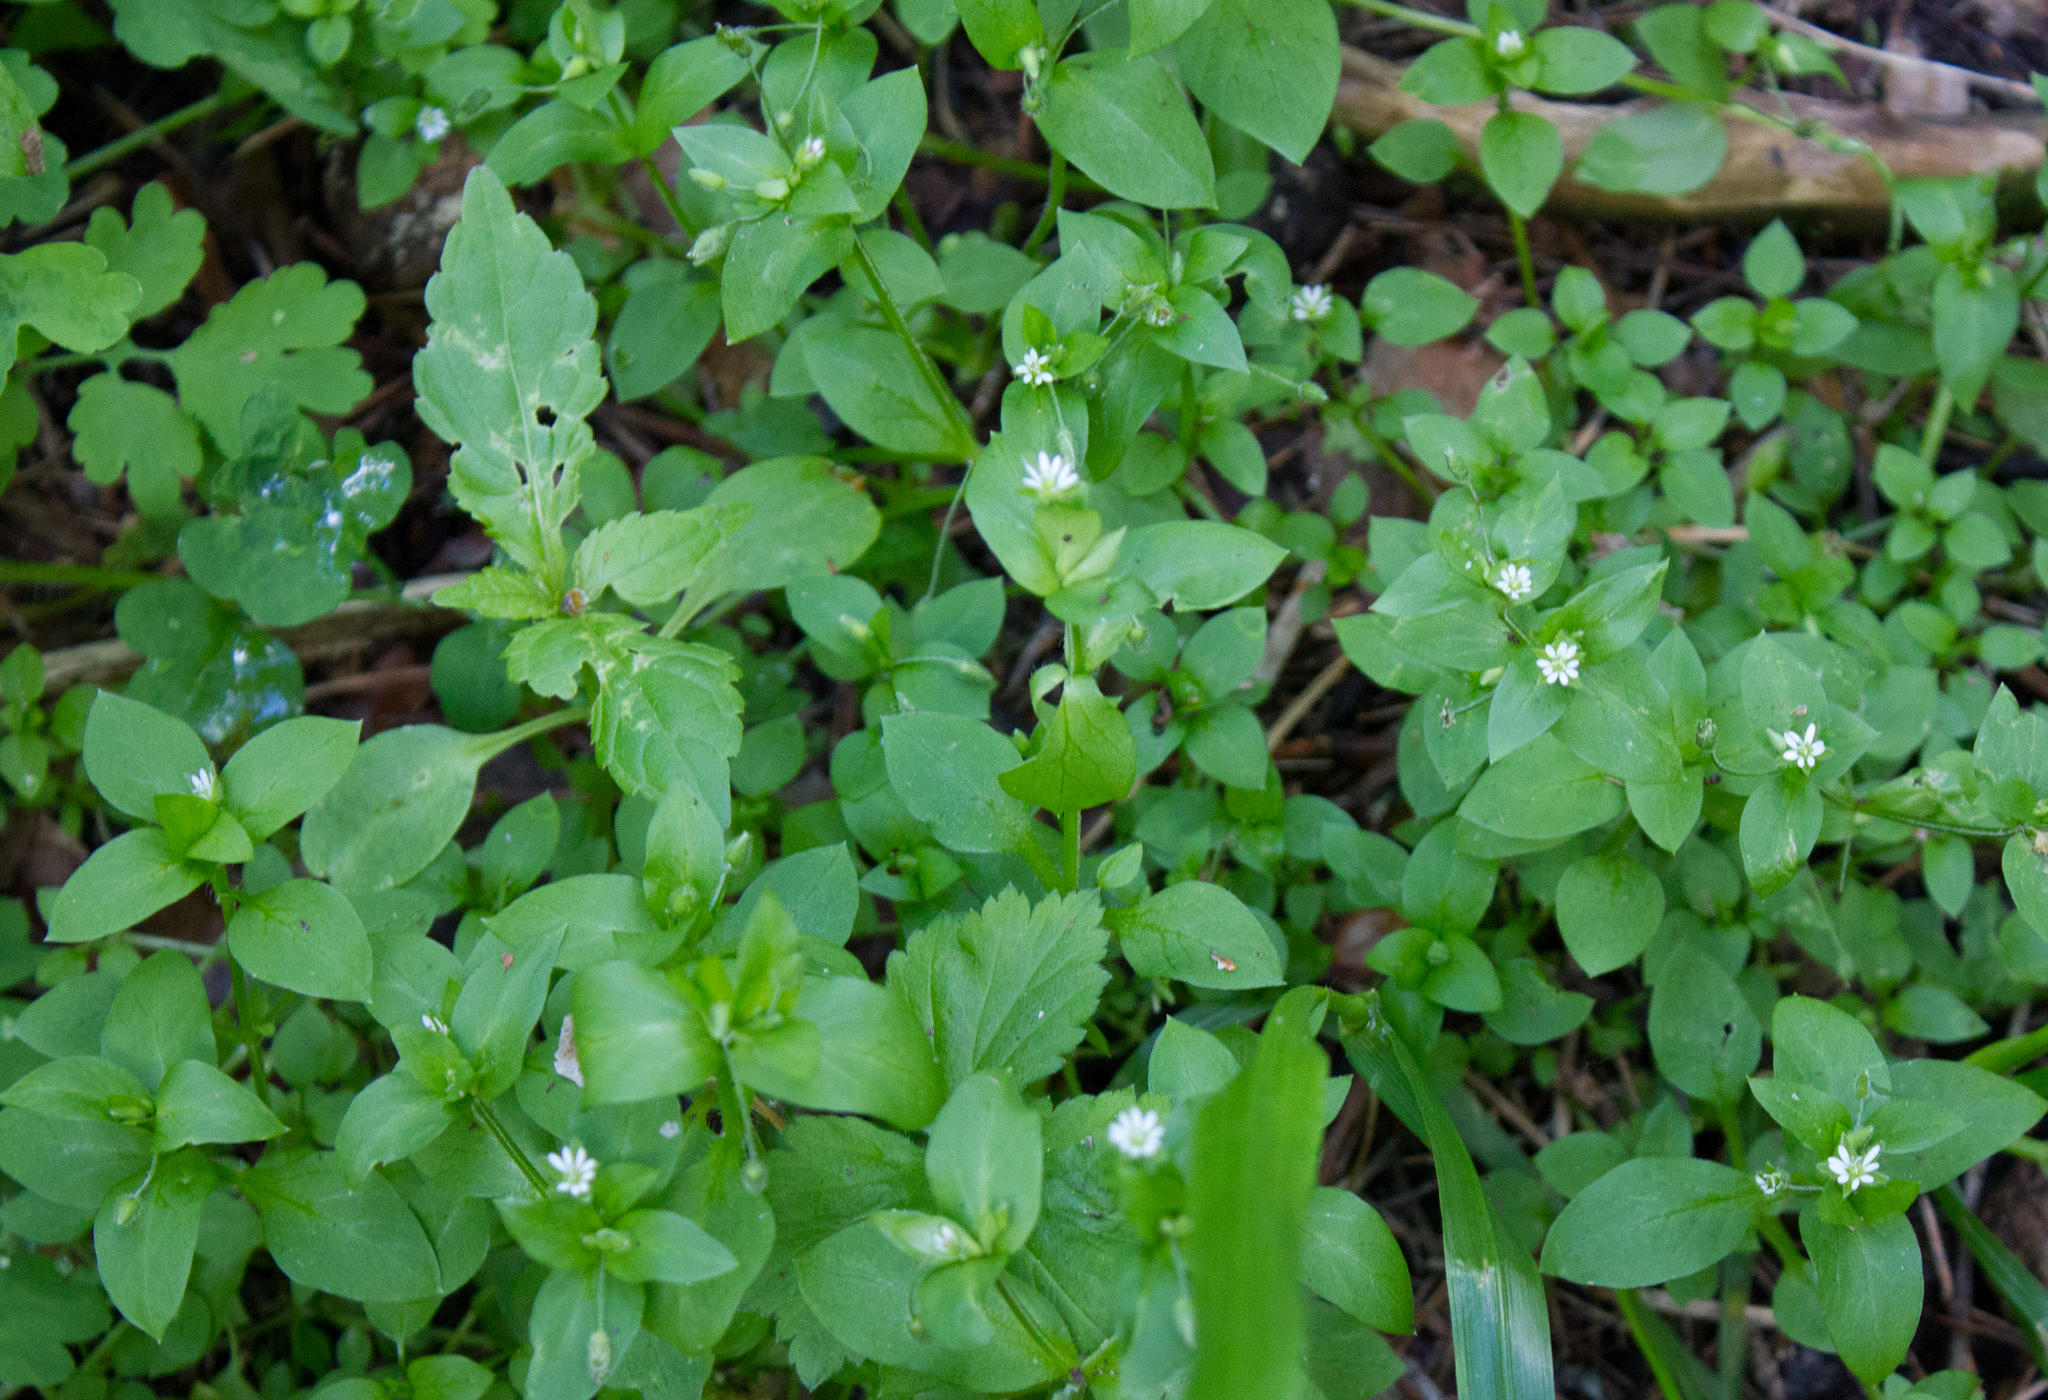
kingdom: Plantae
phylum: Tracheophyta
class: Magnoliopsida
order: Caryophyllales
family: Caryophyllaceae
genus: Stellaria
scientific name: Stellaria media
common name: Common chickweed
